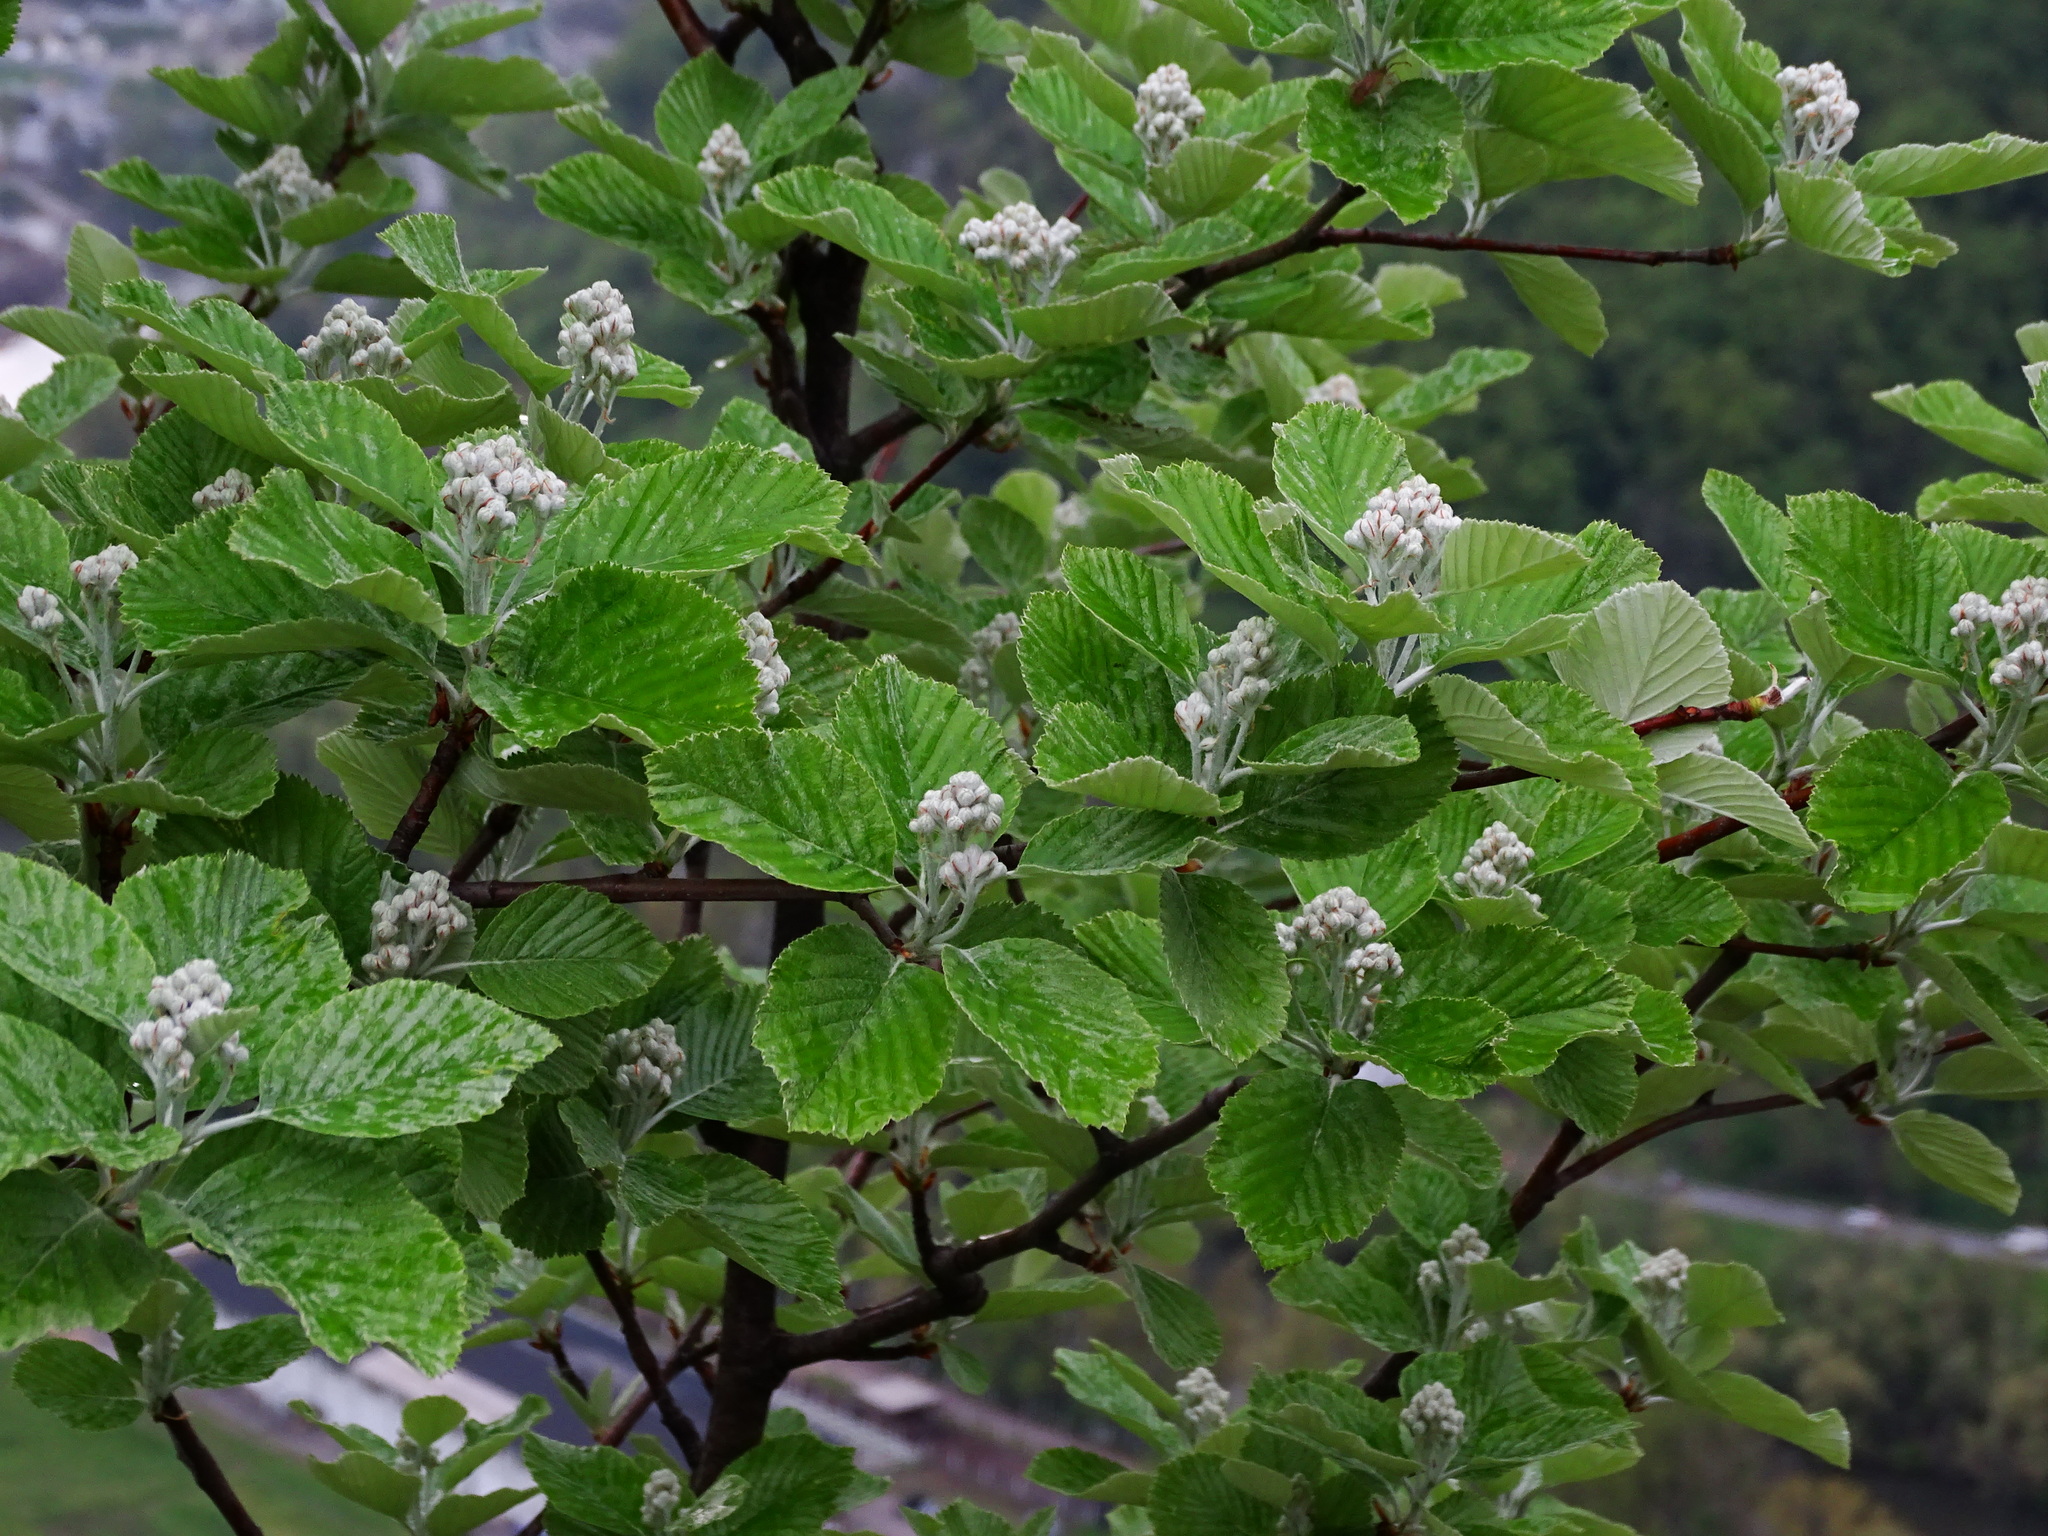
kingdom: Plantae
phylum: Tracheophyta
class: Magnoliopsida
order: Rosales
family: Rosaceae
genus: Aria
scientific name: Aria edulis
